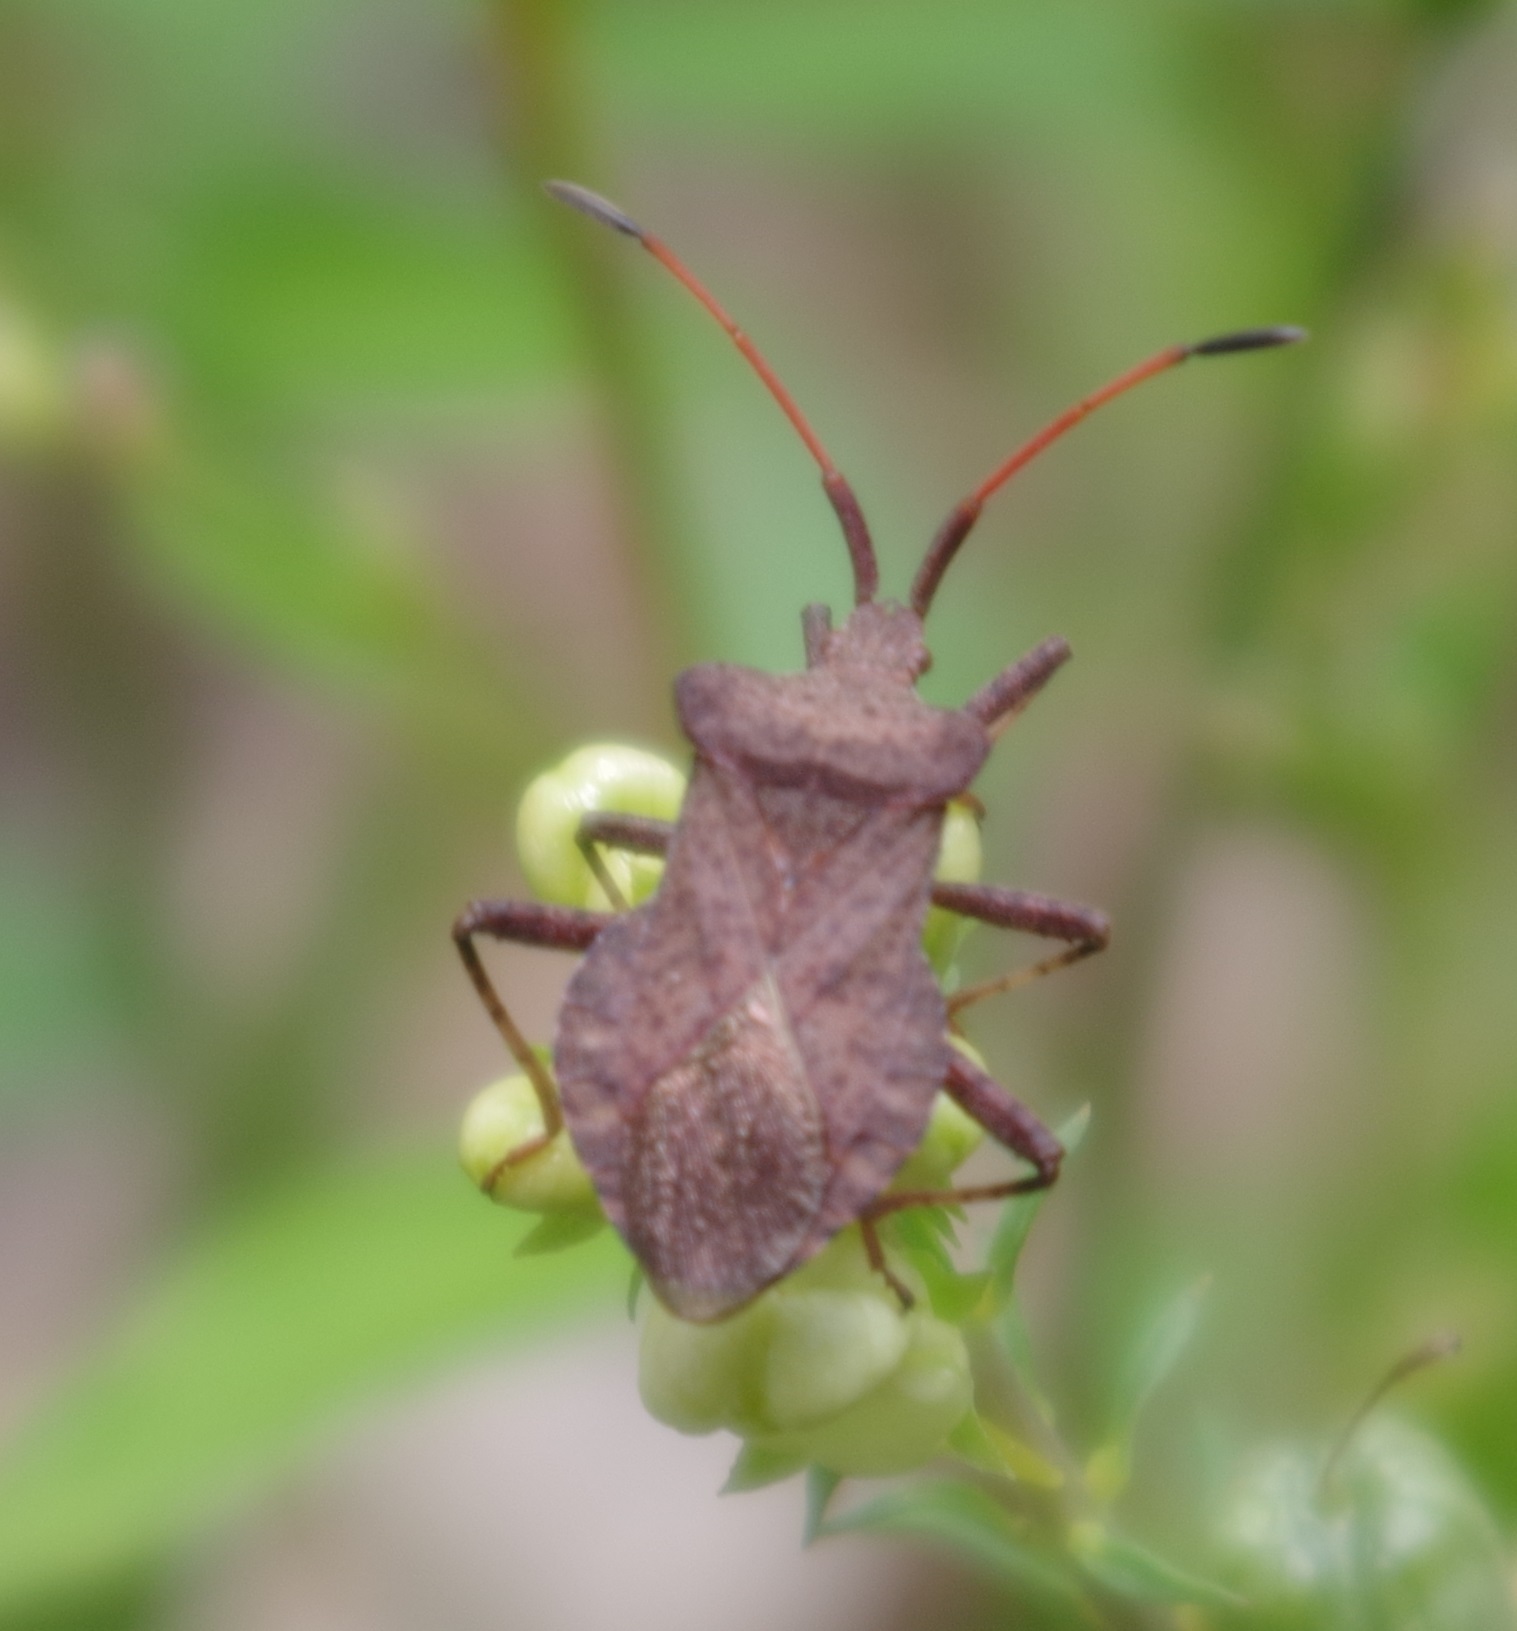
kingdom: Animalia
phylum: Arthropoda
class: Insecta
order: Hemiptera
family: Coreidae
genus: Coreus
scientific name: Coreus marginatus
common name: Dock bug
